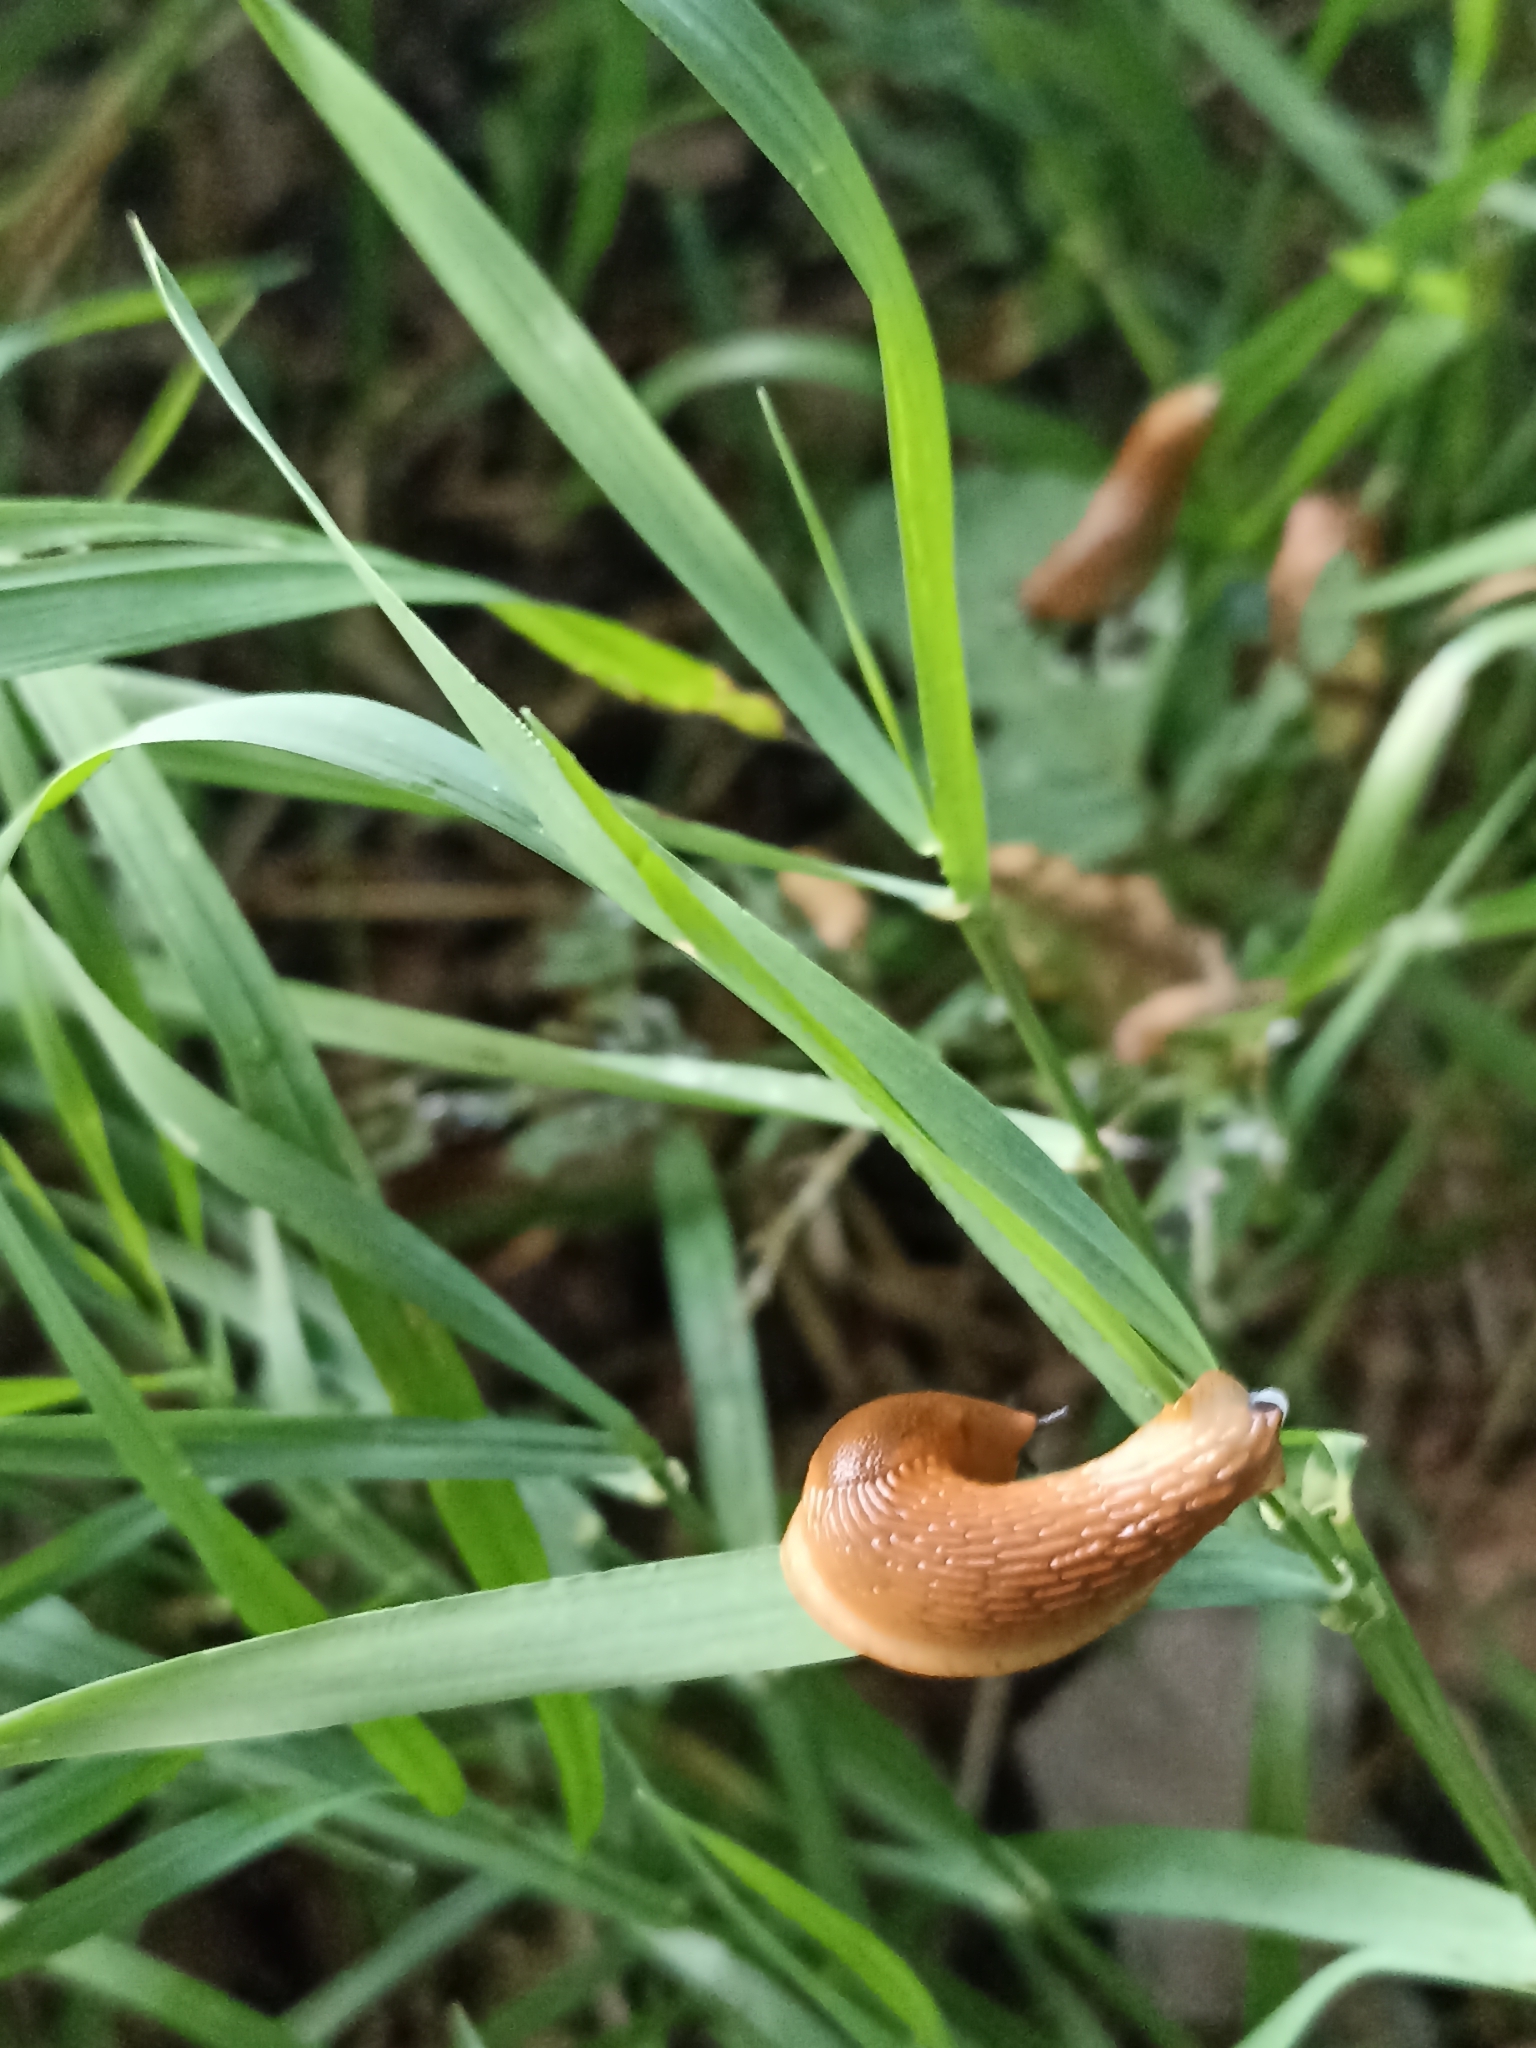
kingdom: Animalia
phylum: Mollusca
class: Gastropoda
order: Stylommatophora
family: Arionidae
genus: Arion
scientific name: Arion vulgaris
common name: Lusitanian slug
